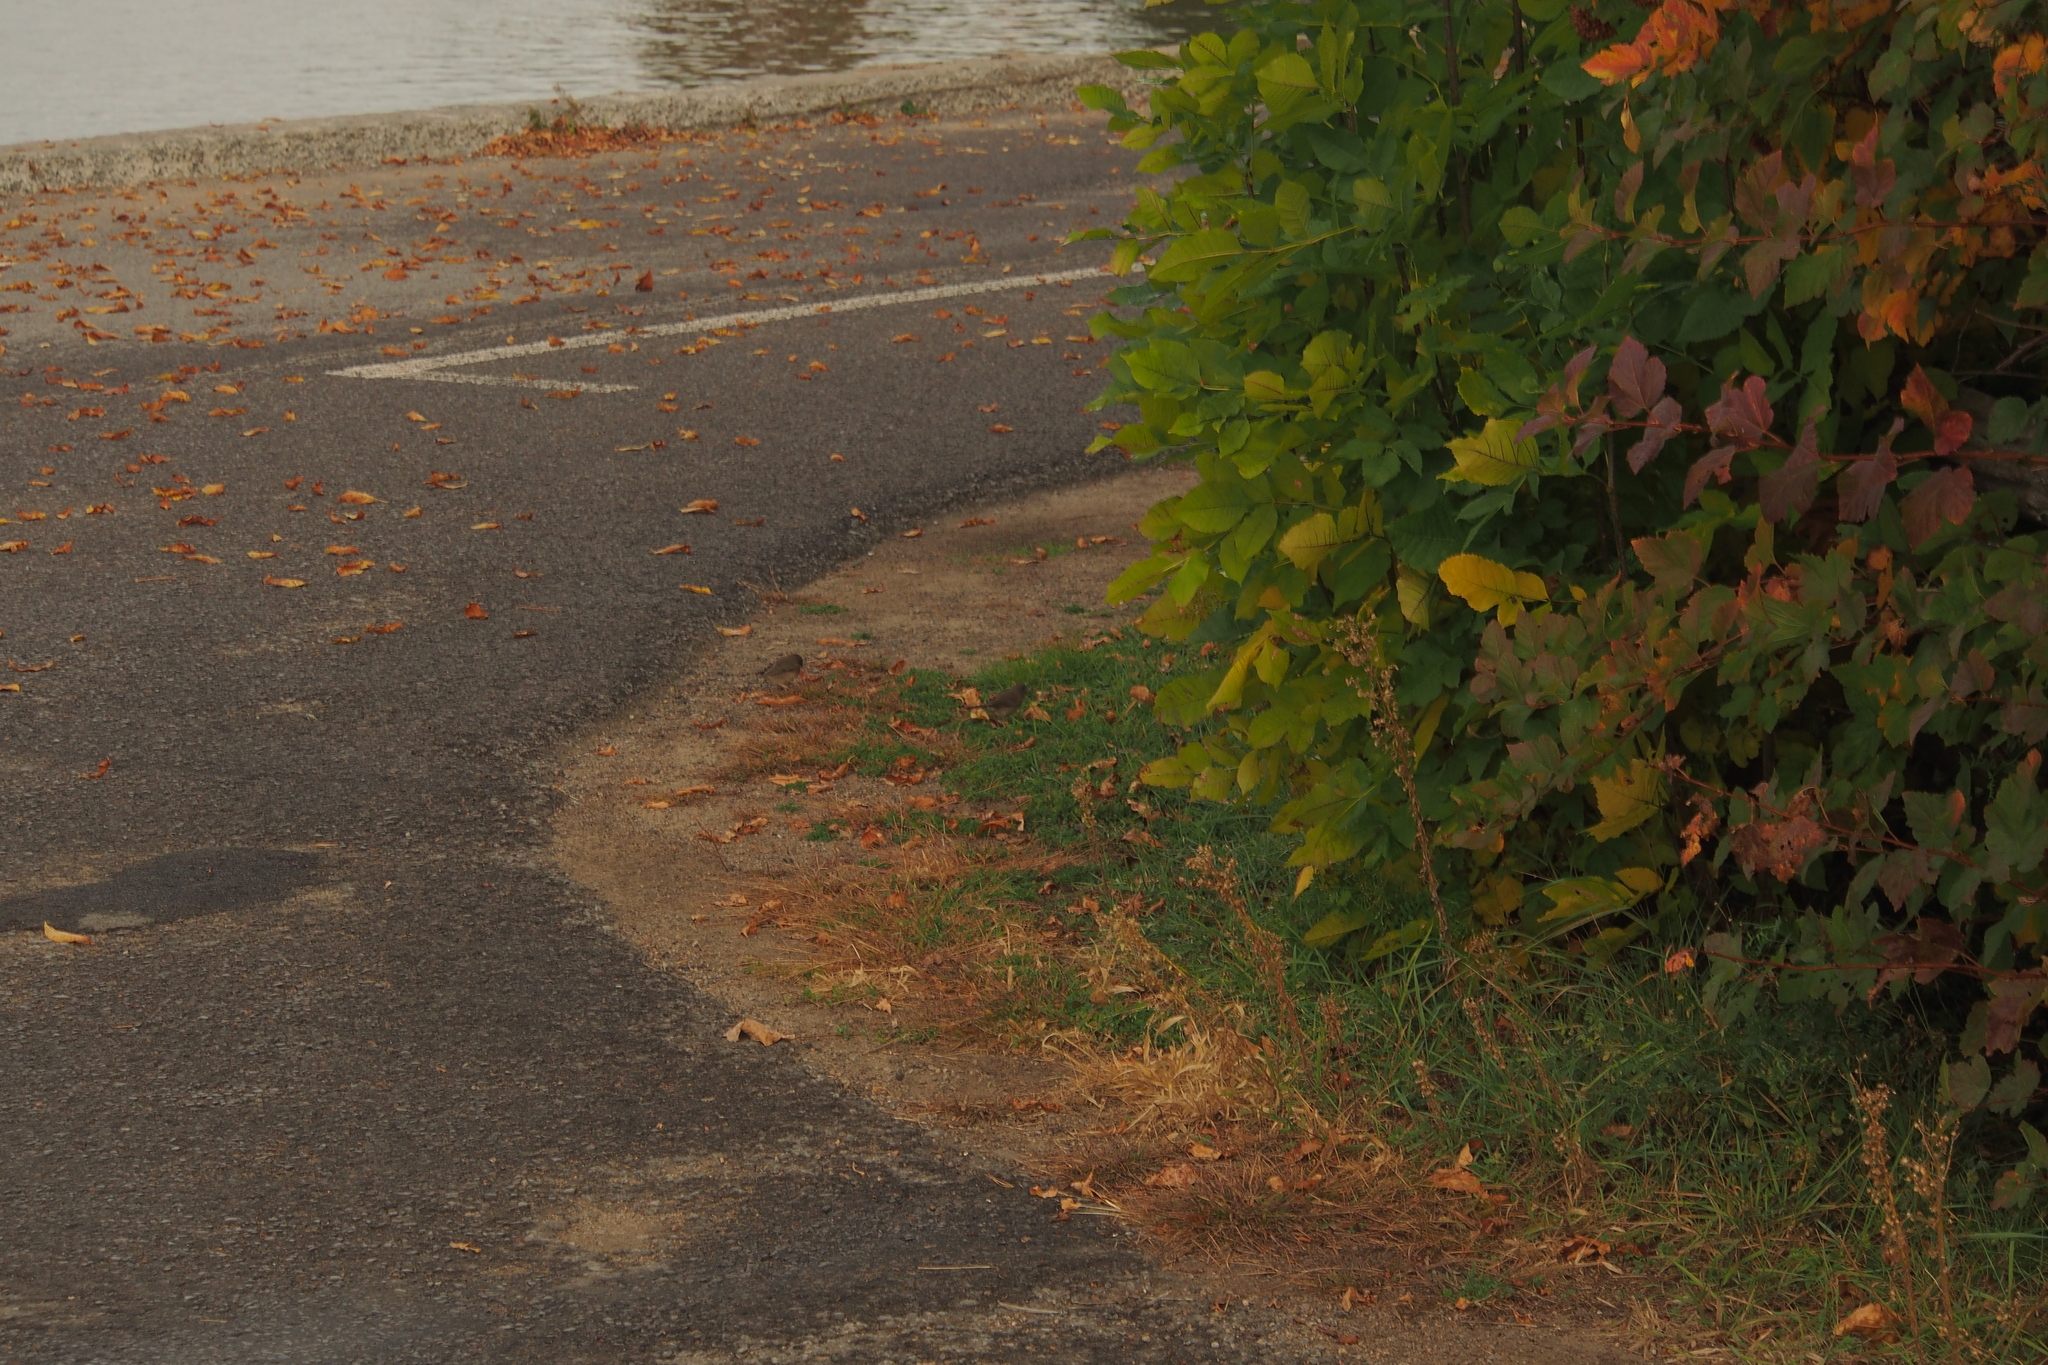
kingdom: Animalia
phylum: Chordata
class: Aves
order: Passeriformes
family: Passerellidae
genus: Junco
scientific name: Junco hyemalis
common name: Dark-eyed junco
